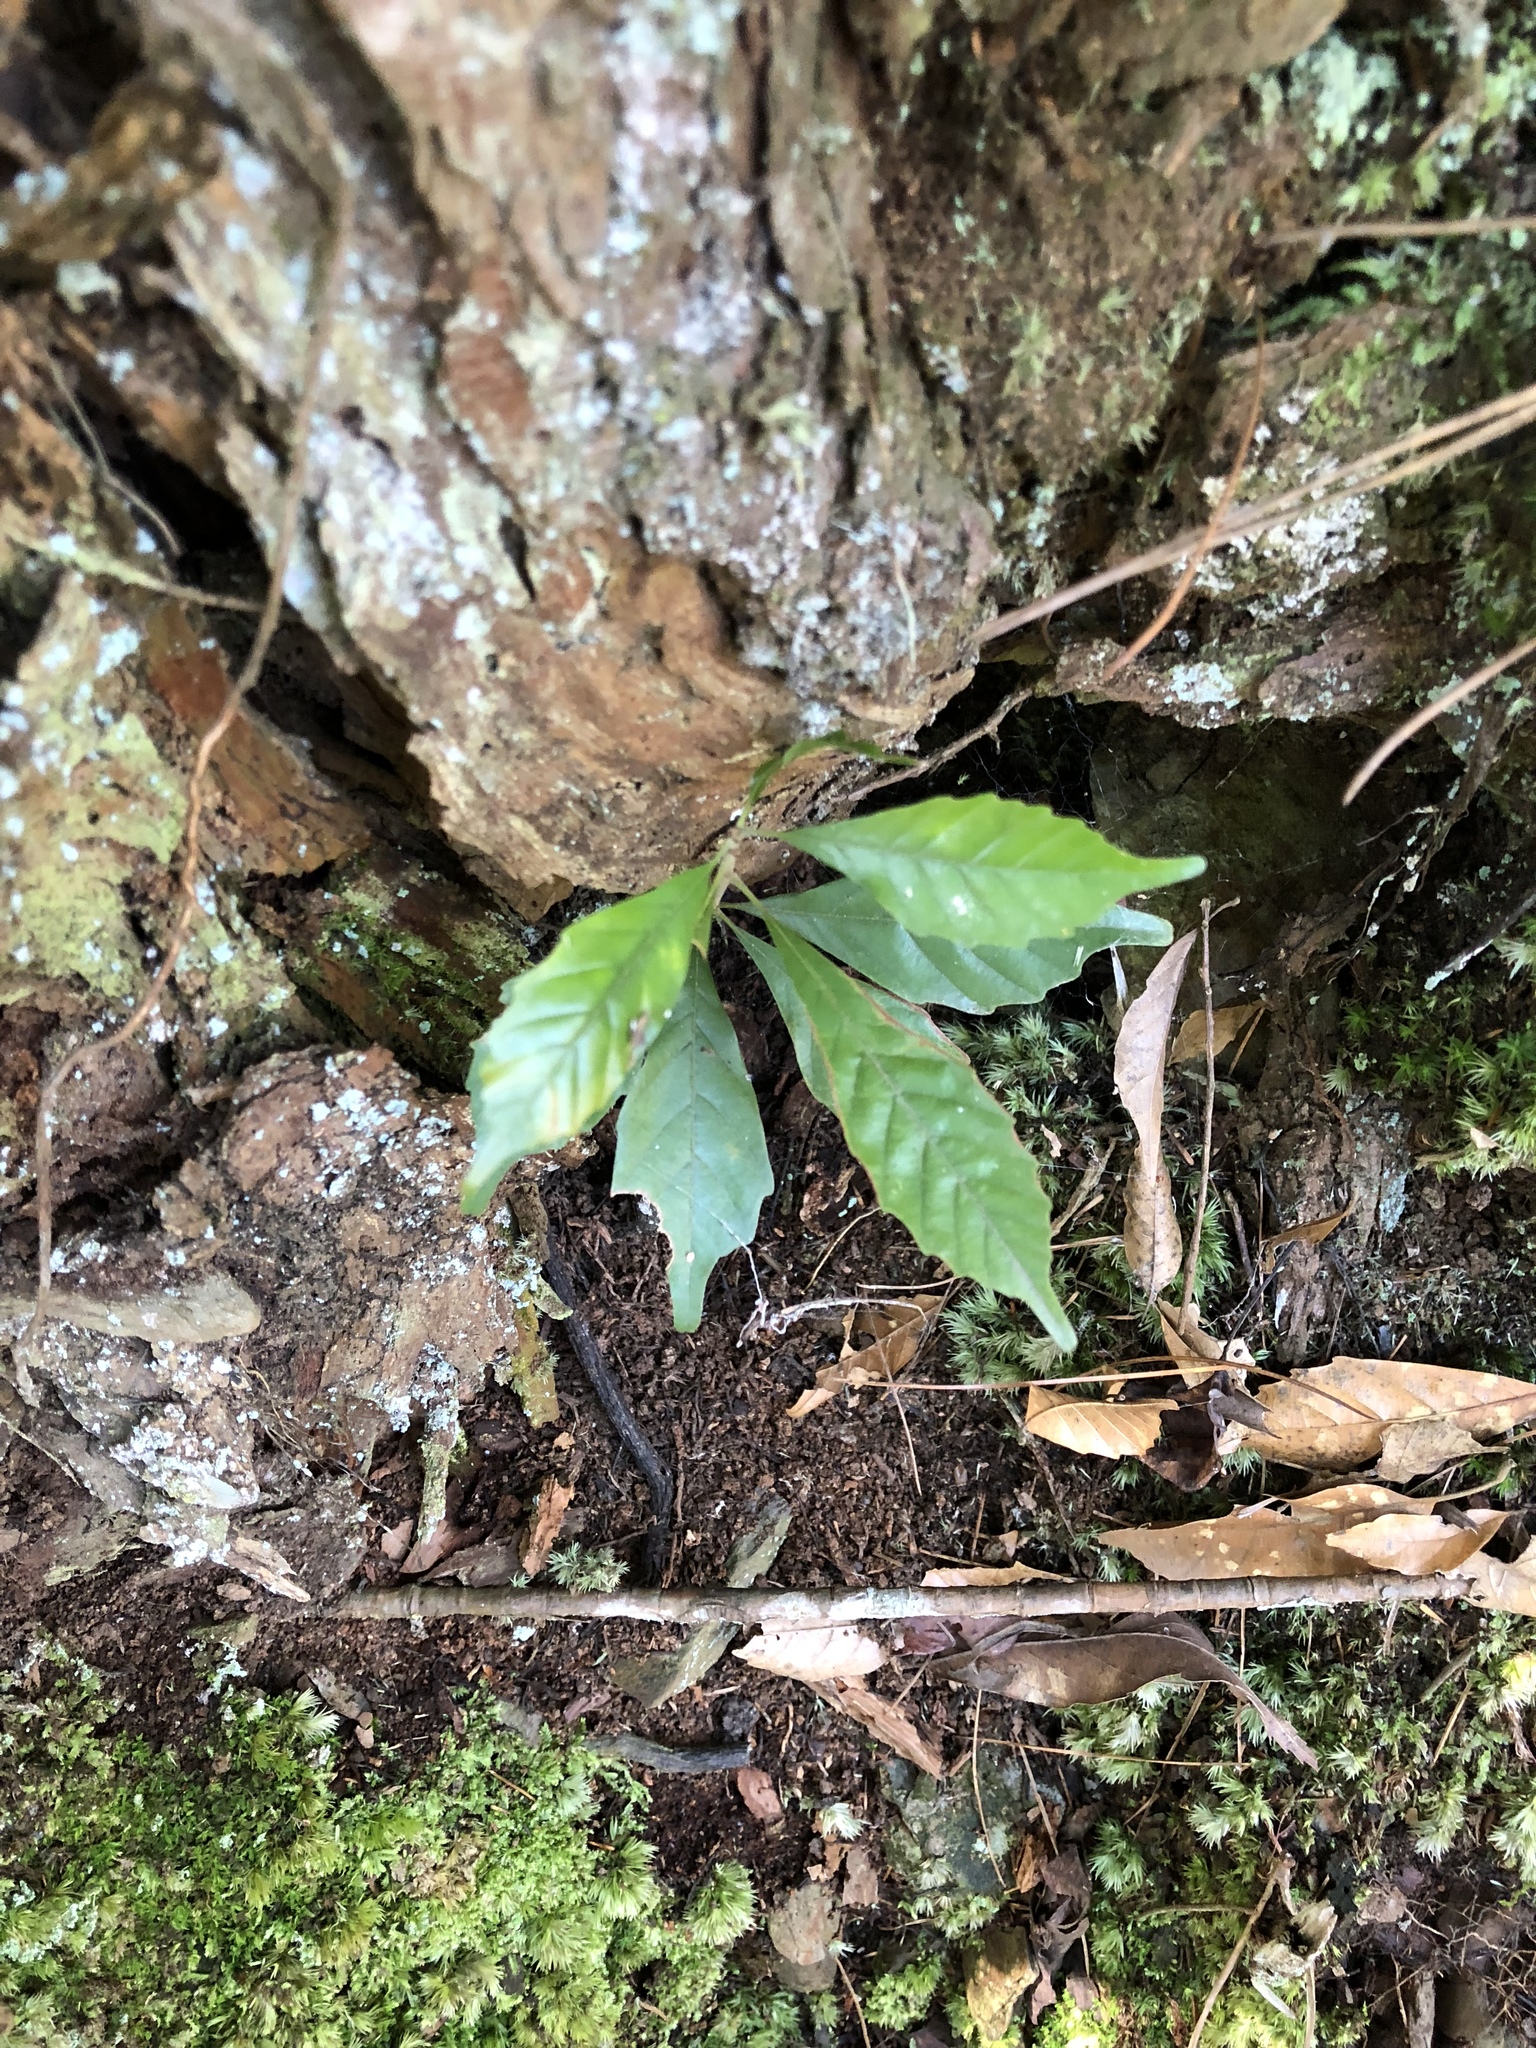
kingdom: Plantae
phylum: Tracheophyta
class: Magnoliopsida
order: Fagales
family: Fagaceae
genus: Lithocarpus
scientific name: Lithocarpus konishii
